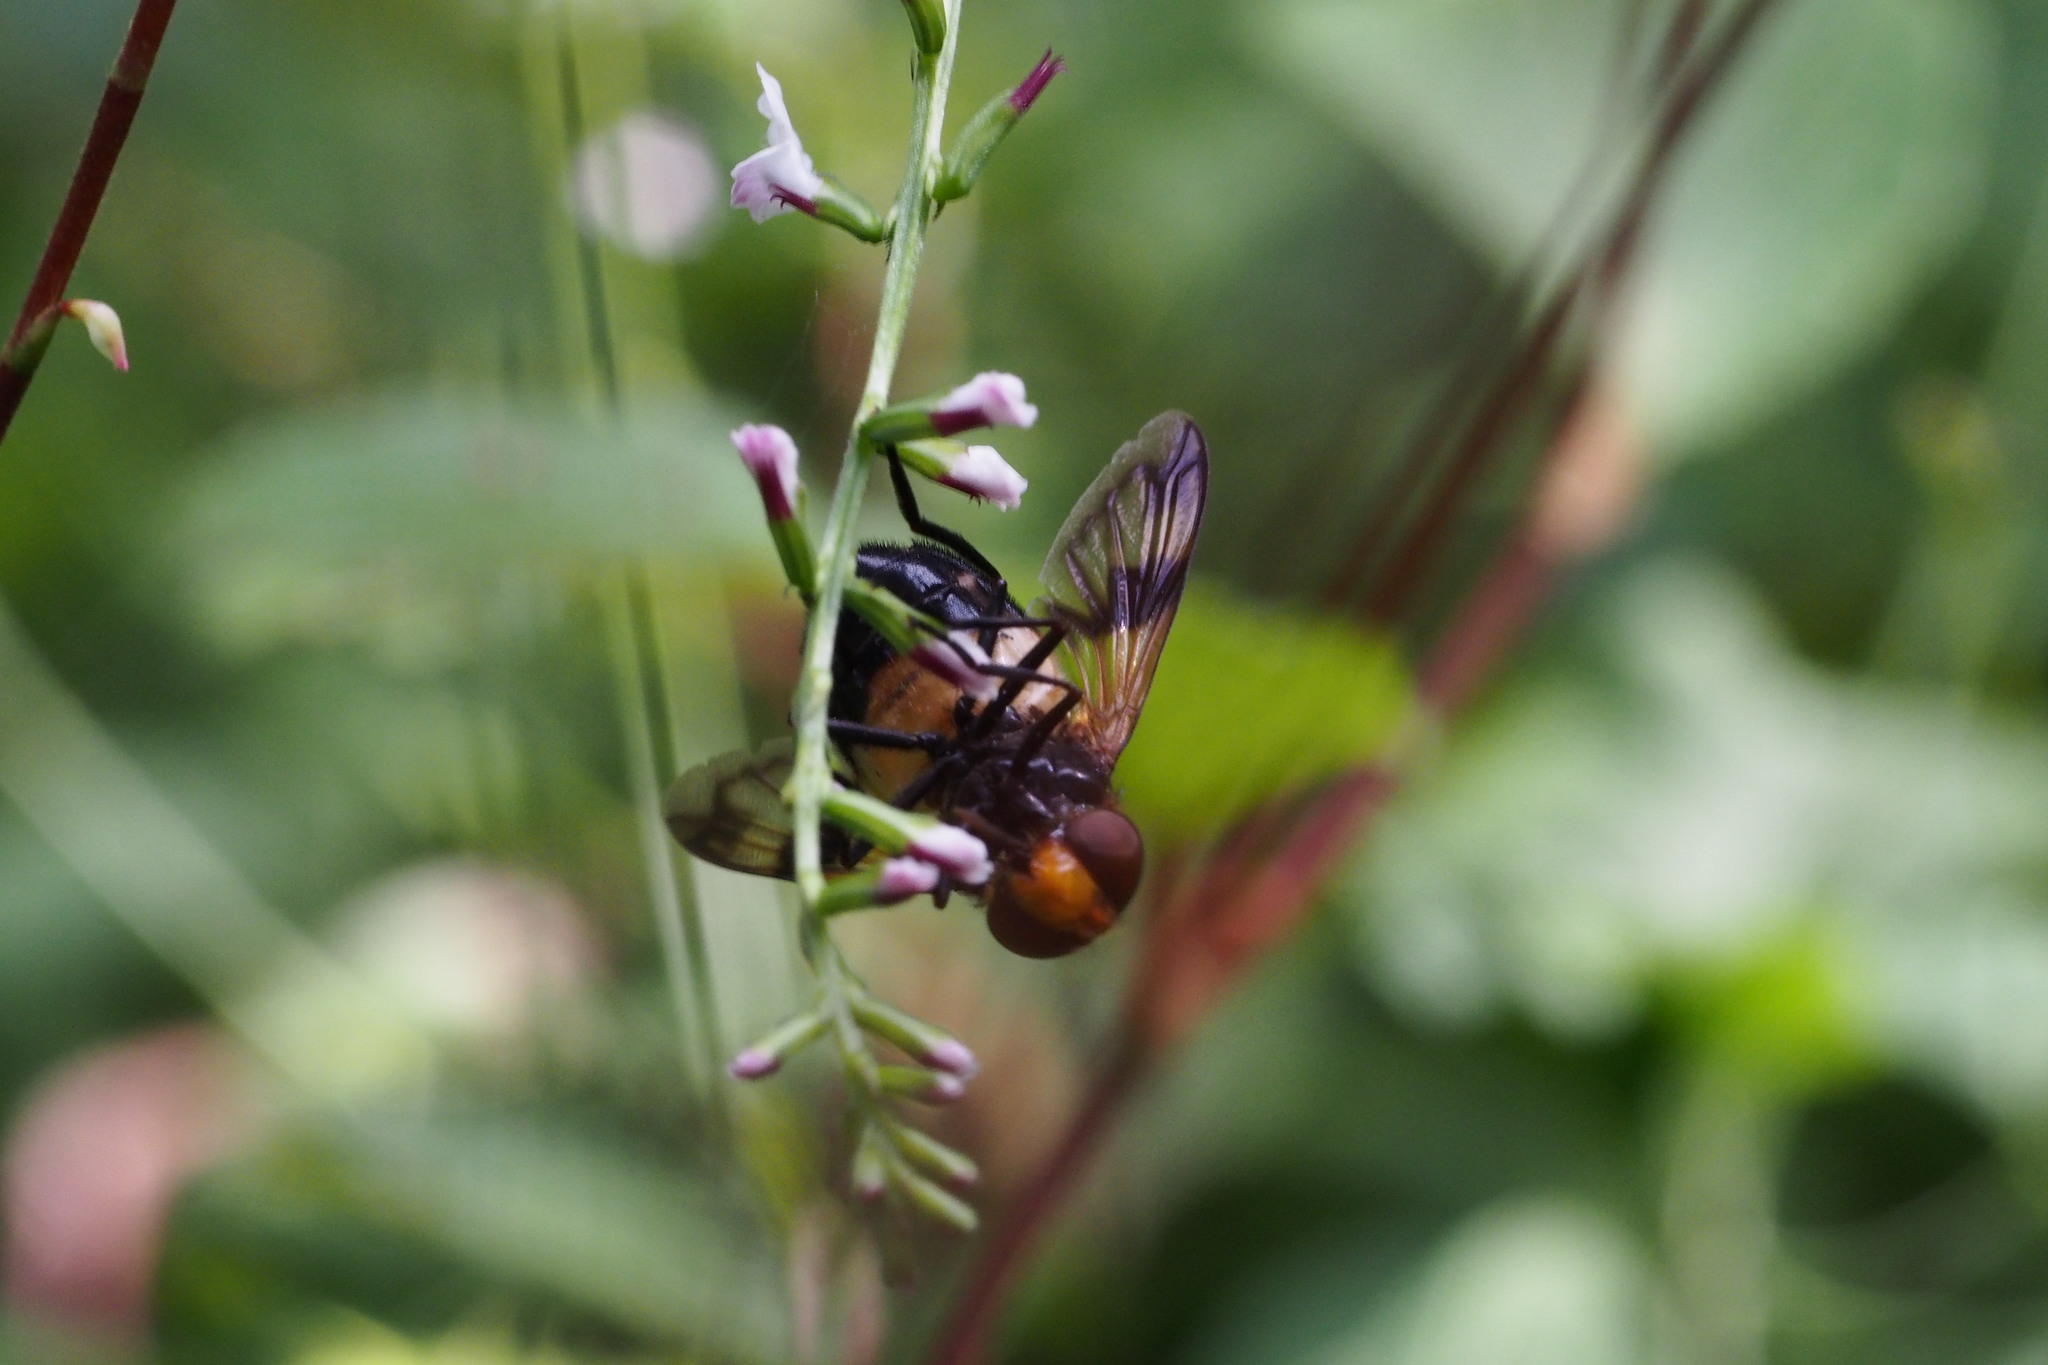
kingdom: Animalia
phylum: Arthropoda
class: Insecta
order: Diptera
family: Syrphidae
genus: Volucella
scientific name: Volucella tabanoides
